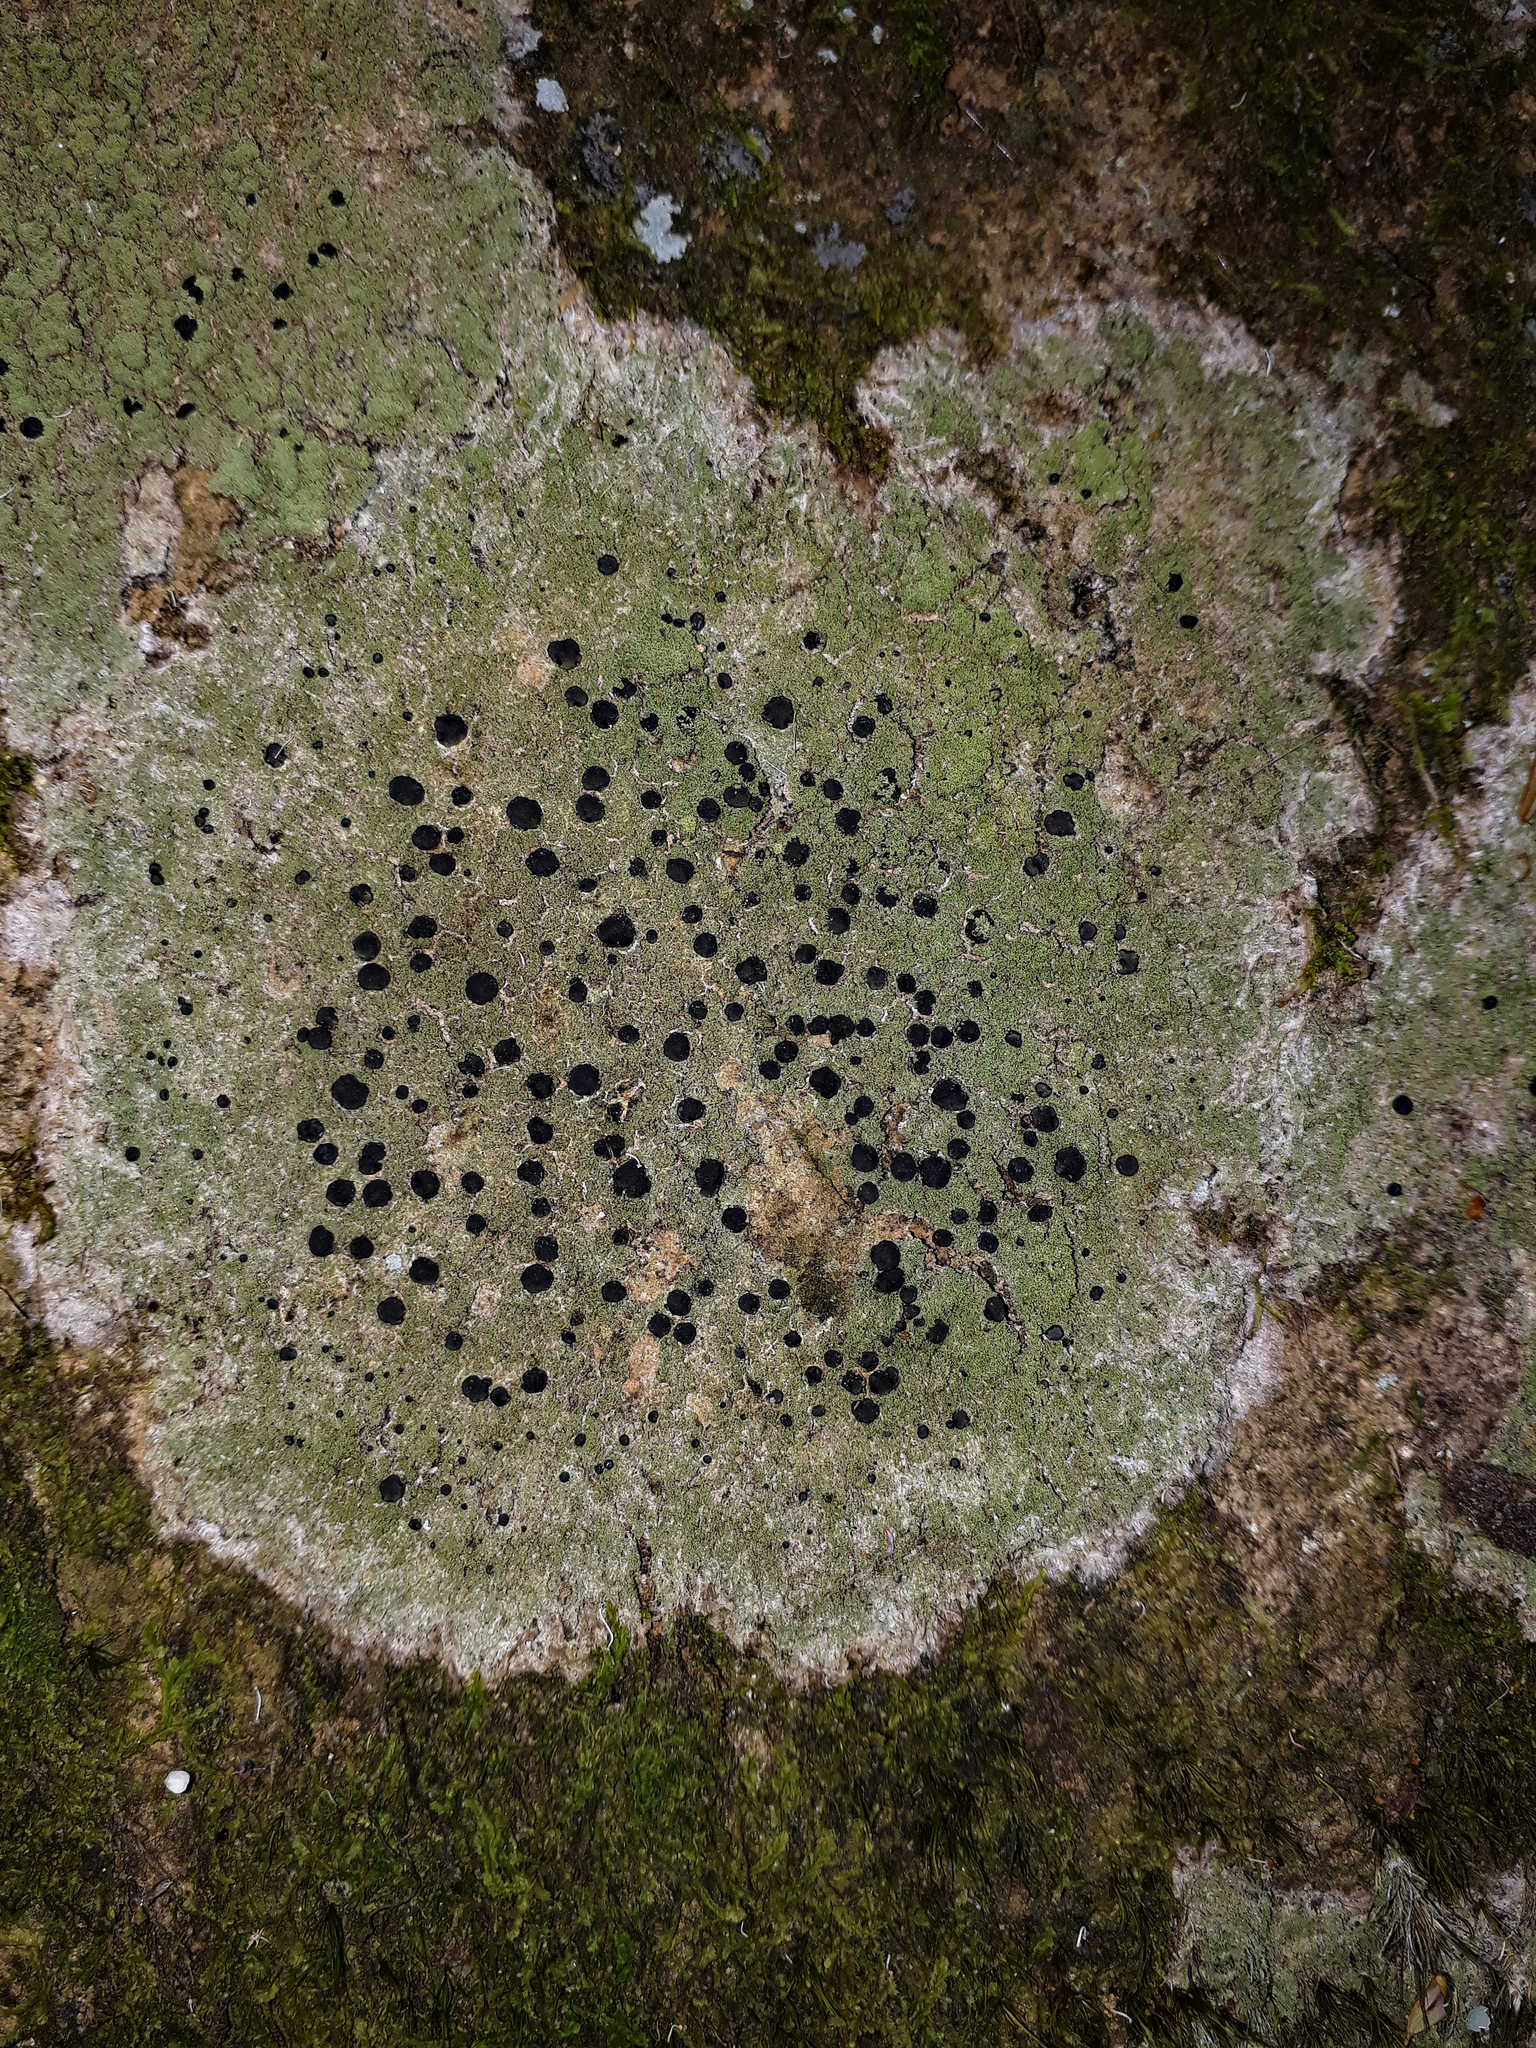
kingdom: Fungi
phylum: Ascomycota
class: Lecanoromycetes
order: Lecanorales
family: Ramalinaceae
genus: Megalaria
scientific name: Megalaria orokonuiana
